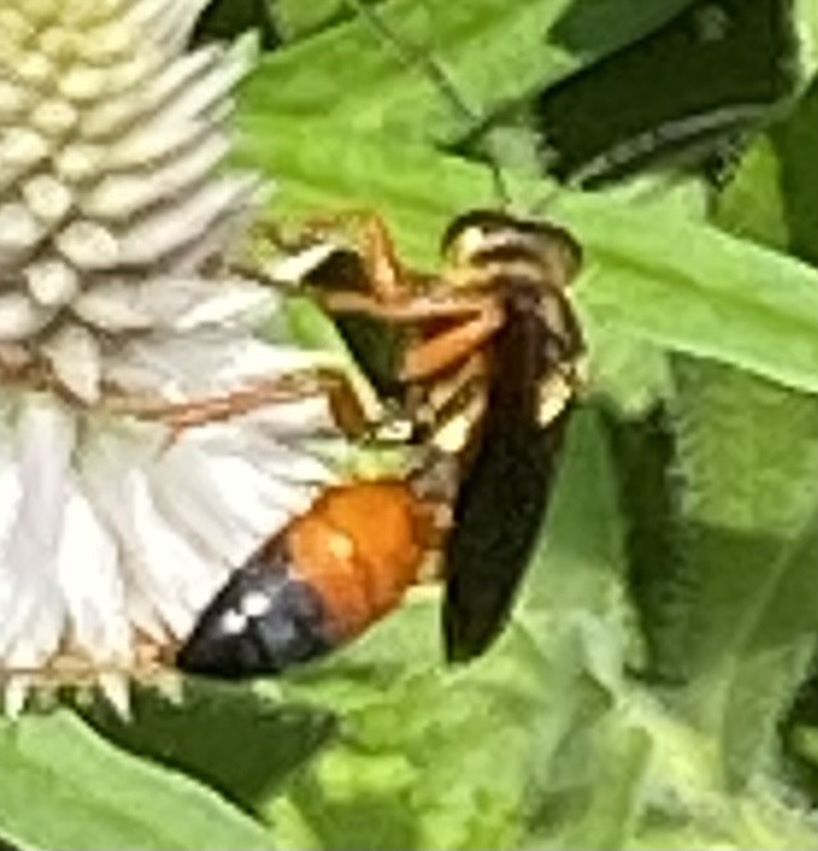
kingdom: Animalia
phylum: Arthropoda
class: Insecta
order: Hymenoptera
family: Sphecidae
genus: Sphex
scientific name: Sphex ichneumoneus
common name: Great golden digger wasp
